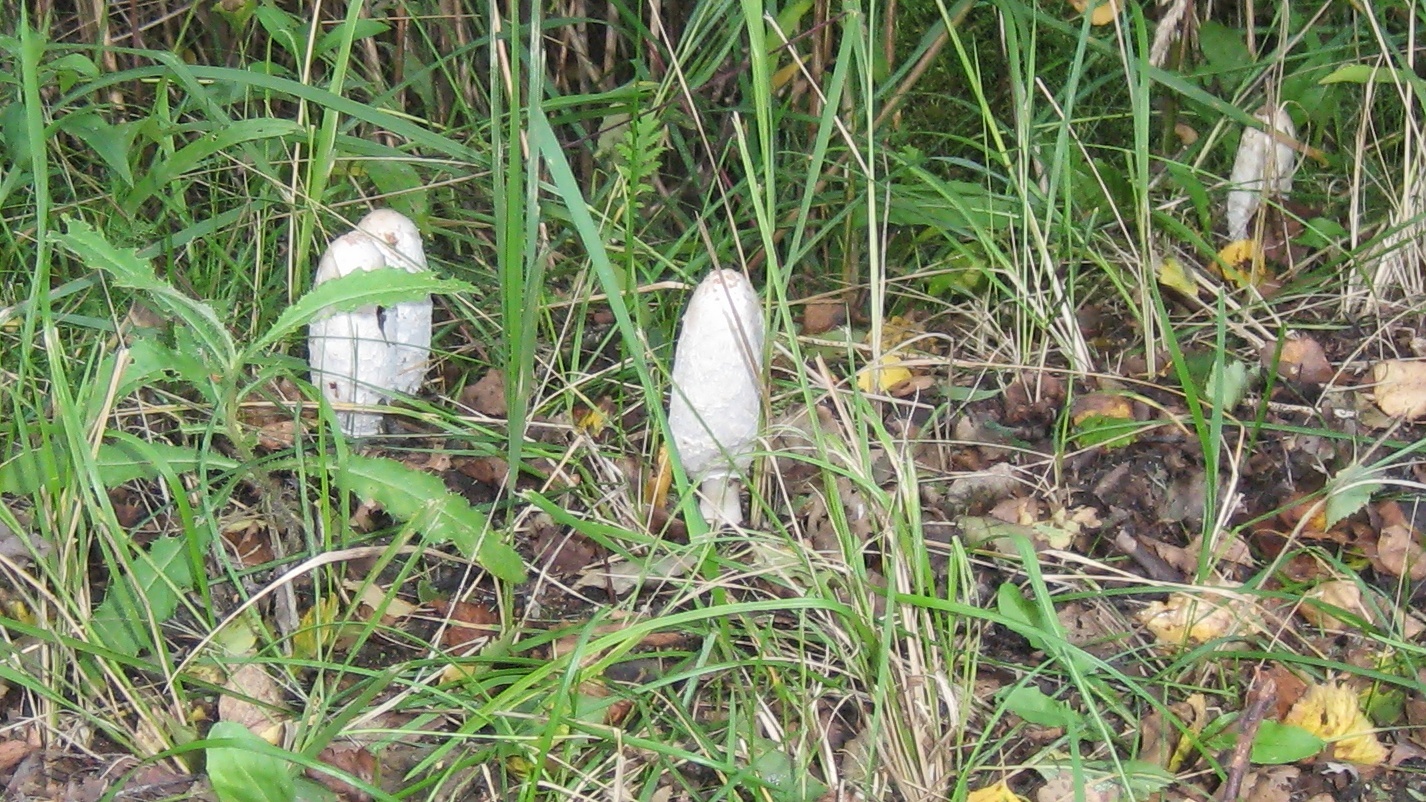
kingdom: Fungi
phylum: Basidiomycota
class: Agaricomycetes
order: Agaricales
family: Agaricaceae
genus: Coprinus
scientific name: Coprinus comatus
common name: Lawyer's wig
